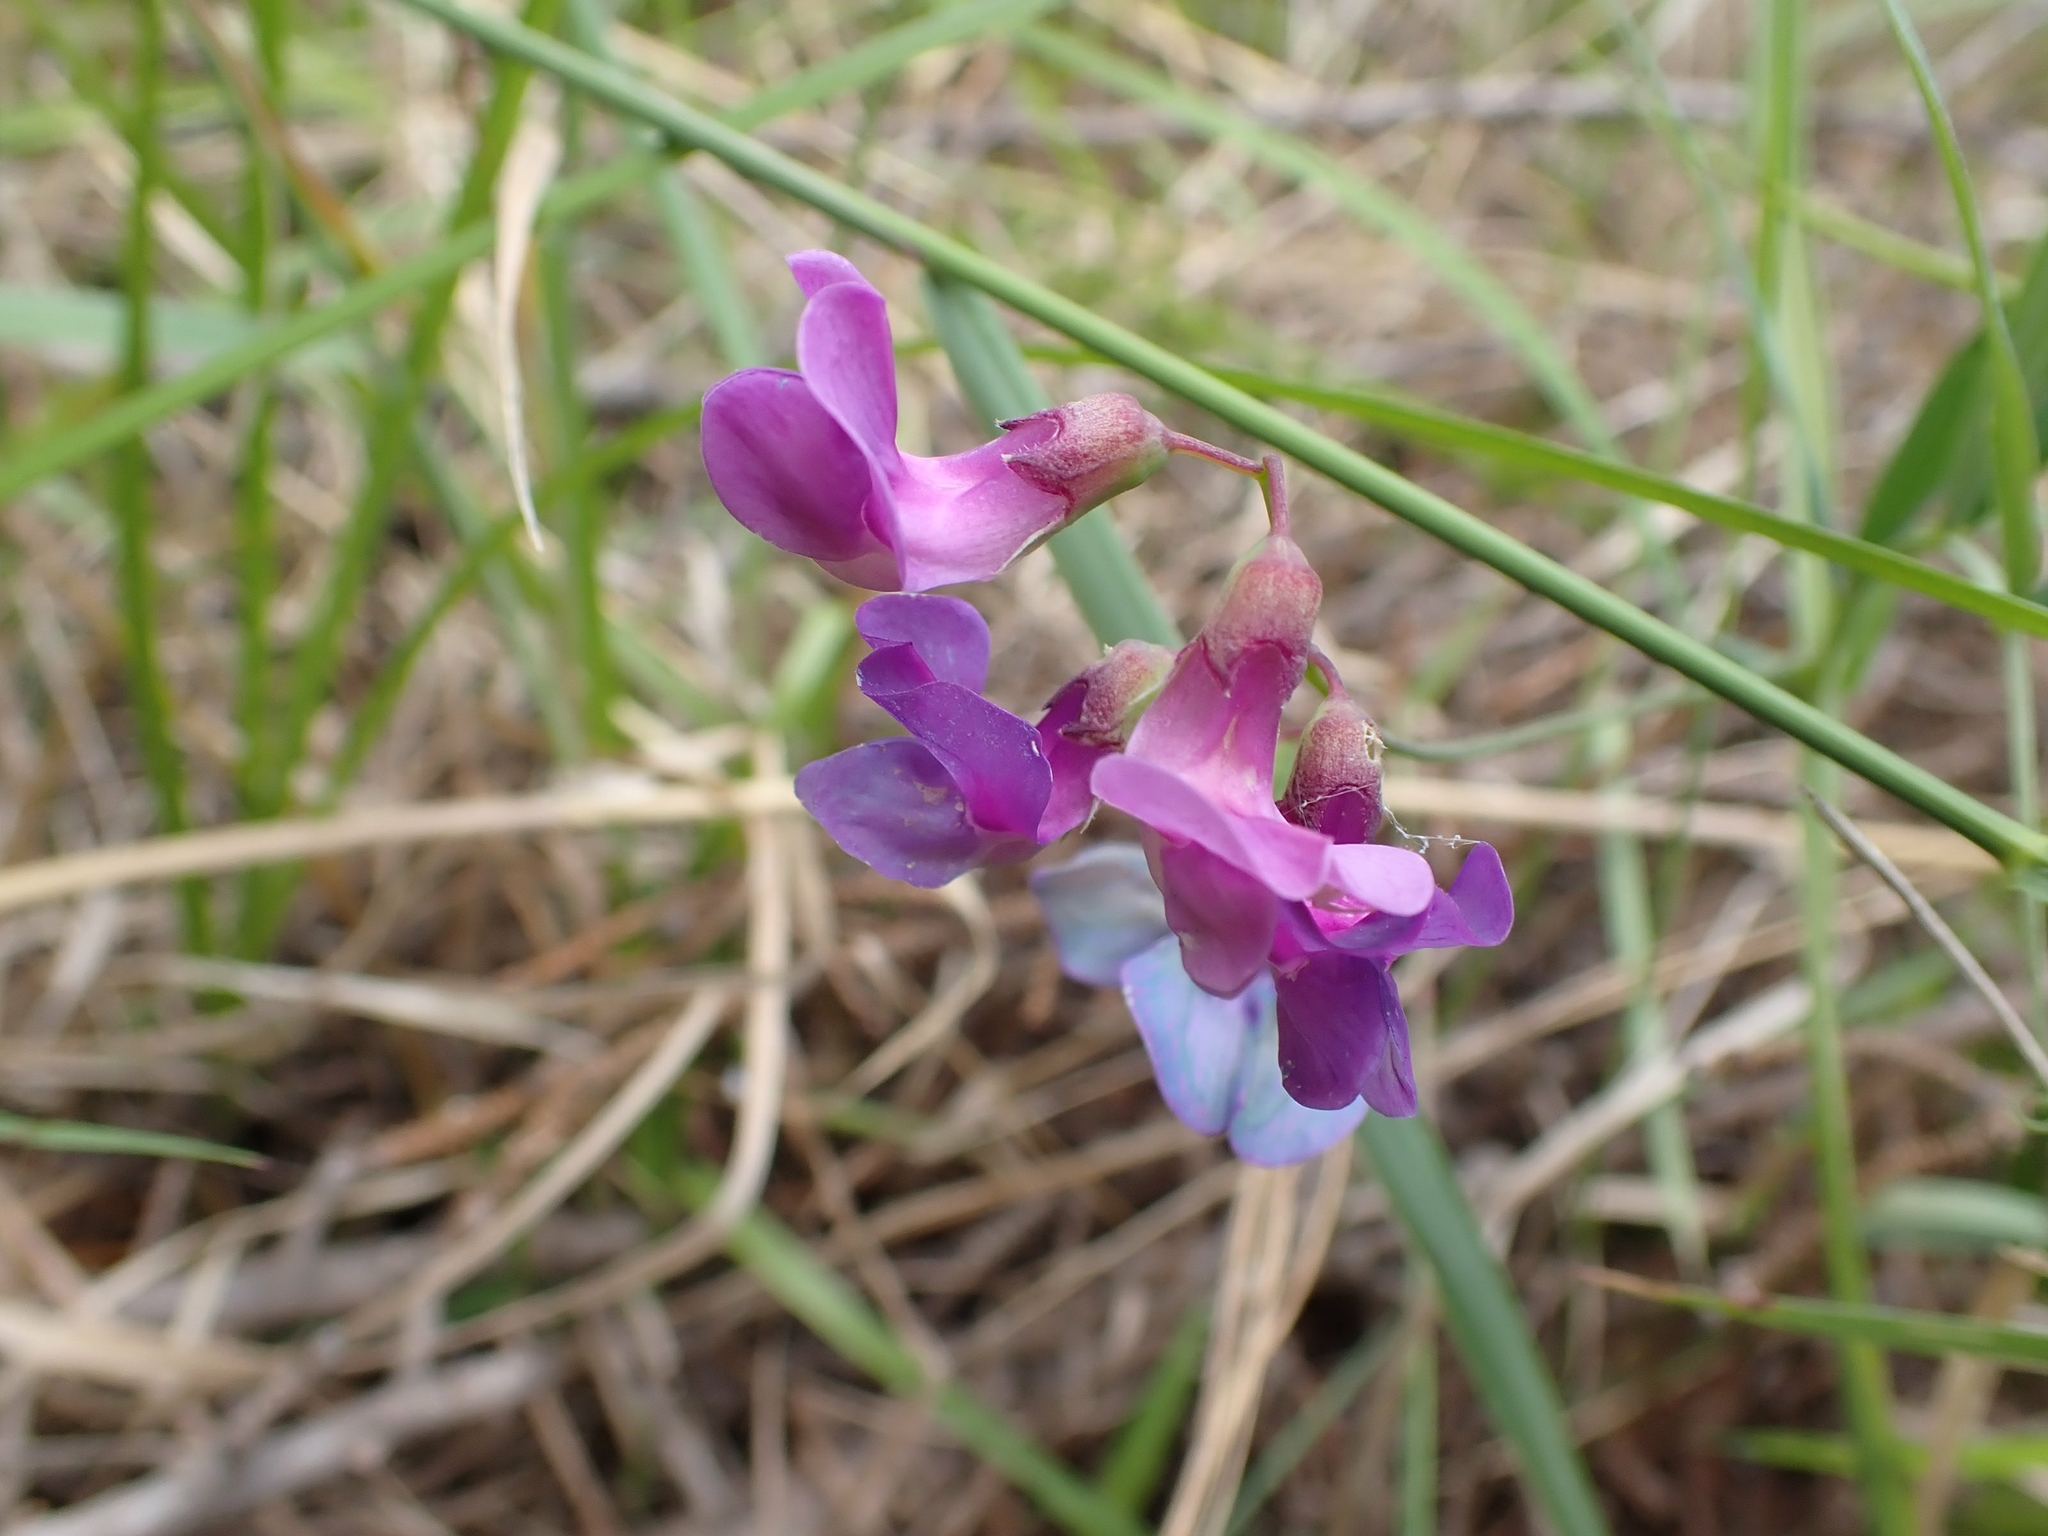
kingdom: Plantae
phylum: Tracheophyta
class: Magnoliopsida
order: Fabales
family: Fabaceae
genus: Lathyrus
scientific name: Lathyrus palustris
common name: Marsh pea
